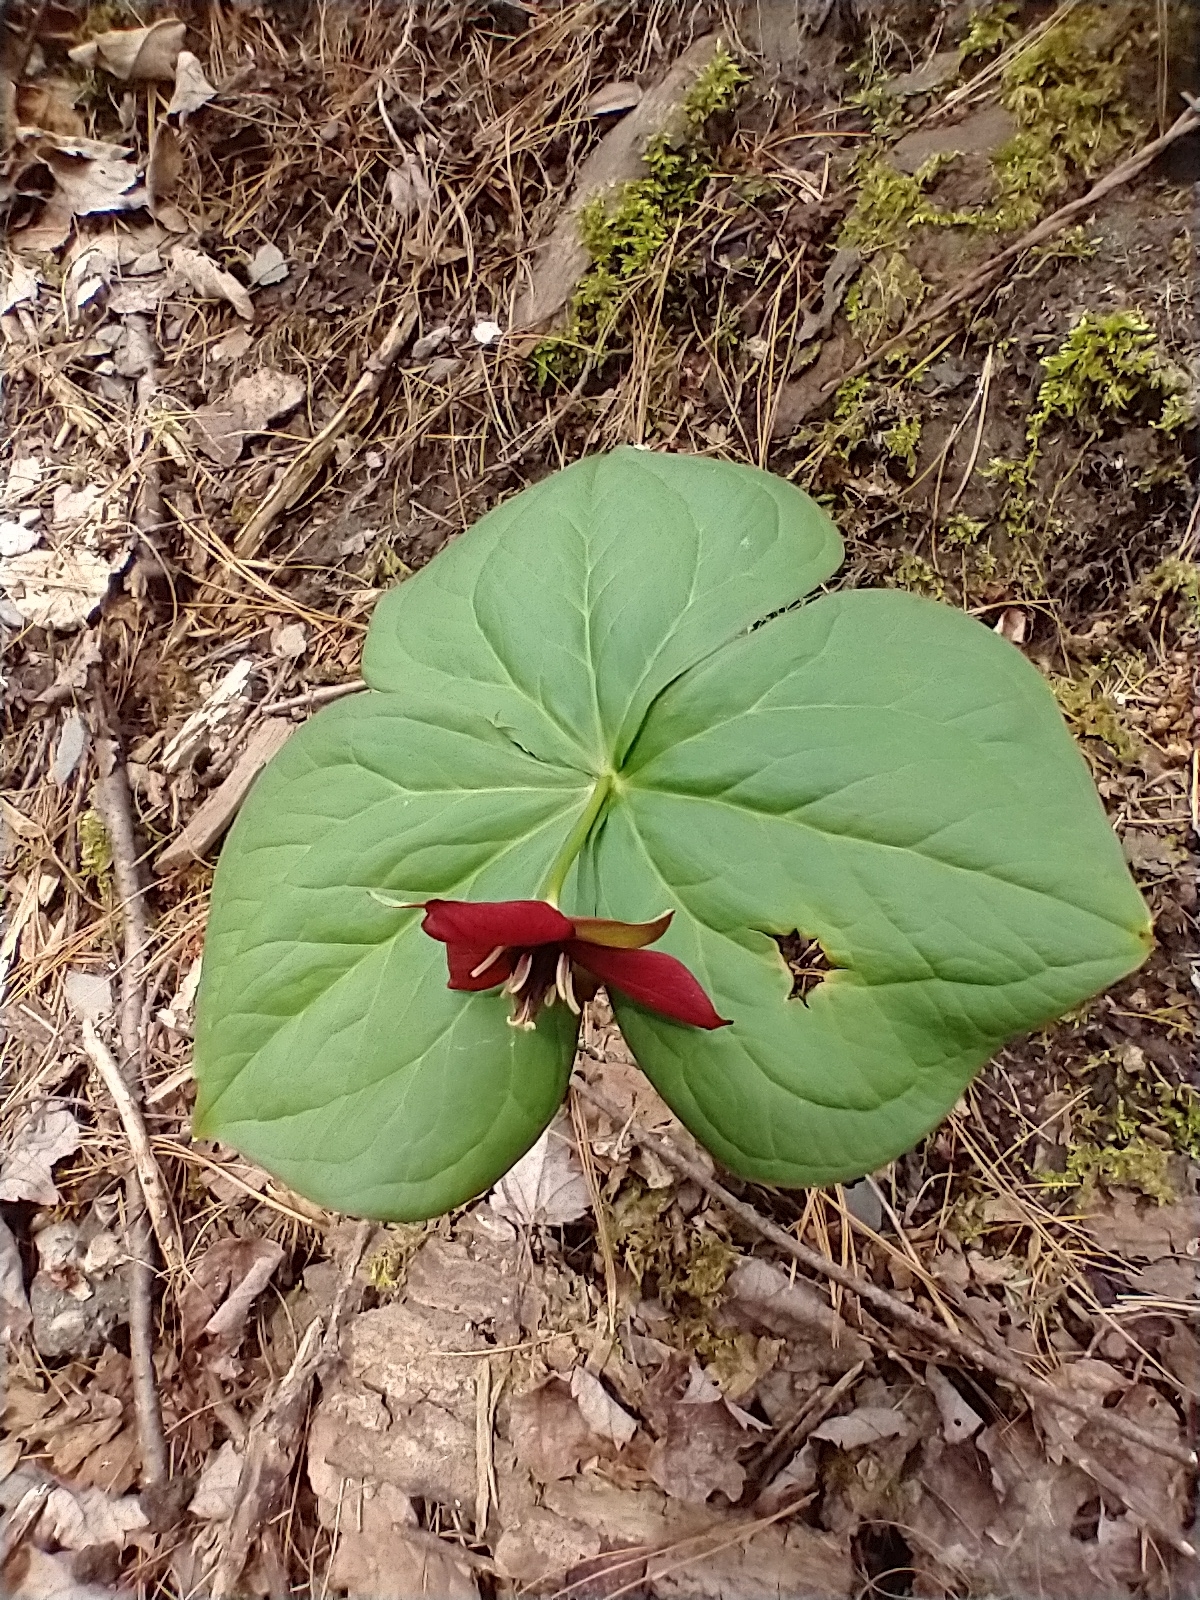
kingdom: Plantae
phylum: Tracheophyta
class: Liliopsida
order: Liliales
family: Melanthiaceae
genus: Trillium
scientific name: Trillium erectum
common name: Purple trillium
